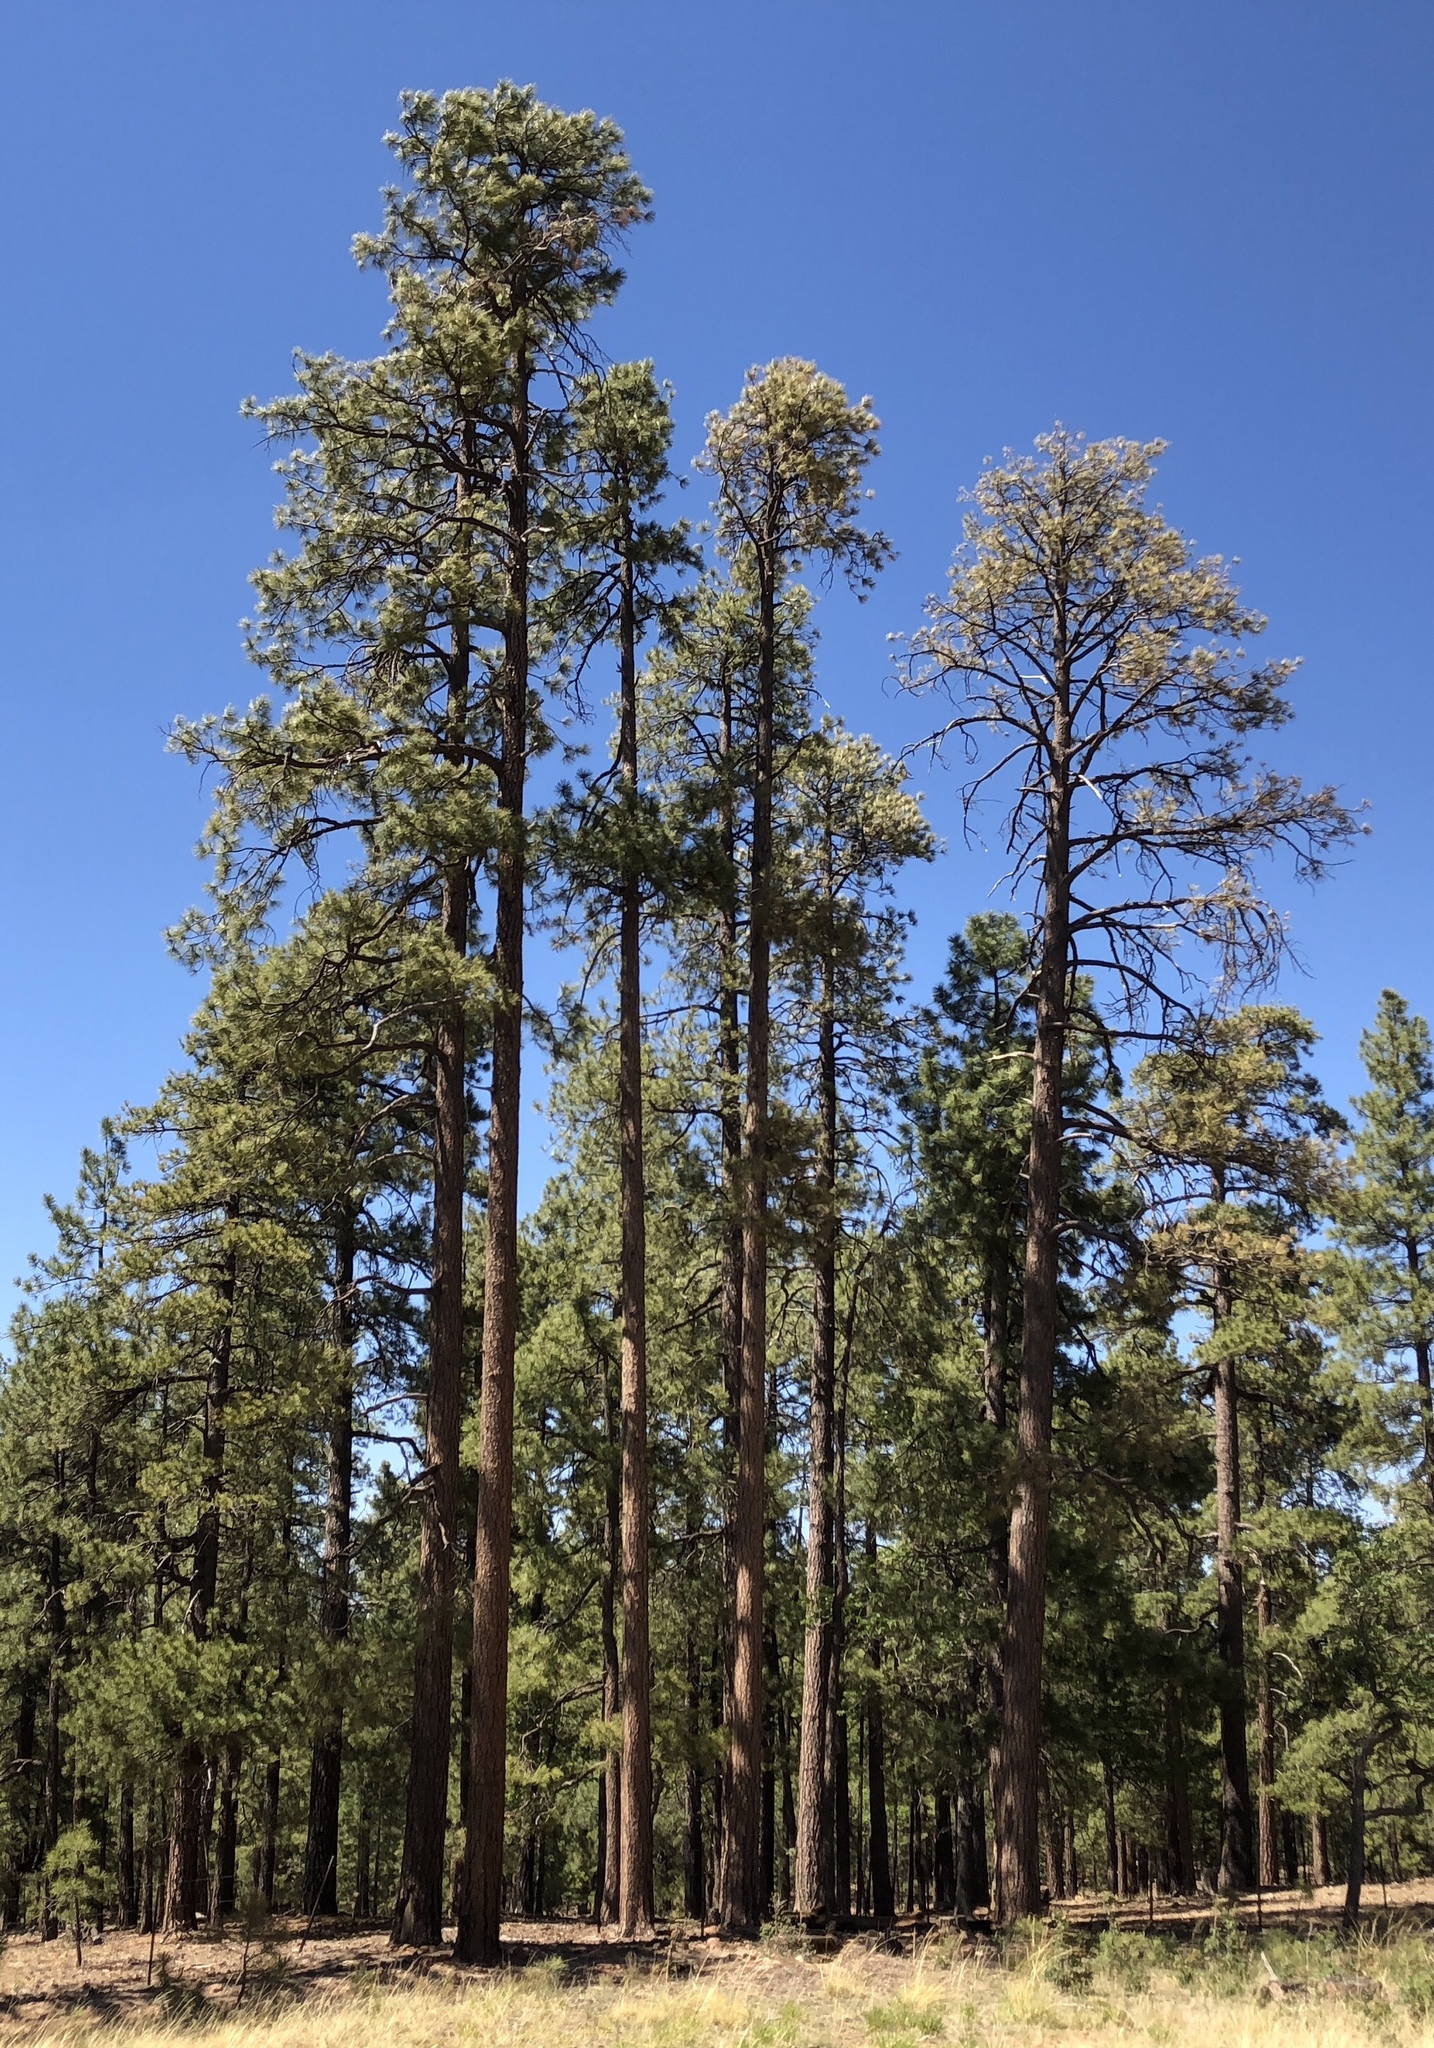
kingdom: Plantae
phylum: Tracheophyta
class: Pinopsida
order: Pinales
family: Pinaceae
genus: Pinus
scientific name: Pinus ponderosa
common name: Western yellow-pine
